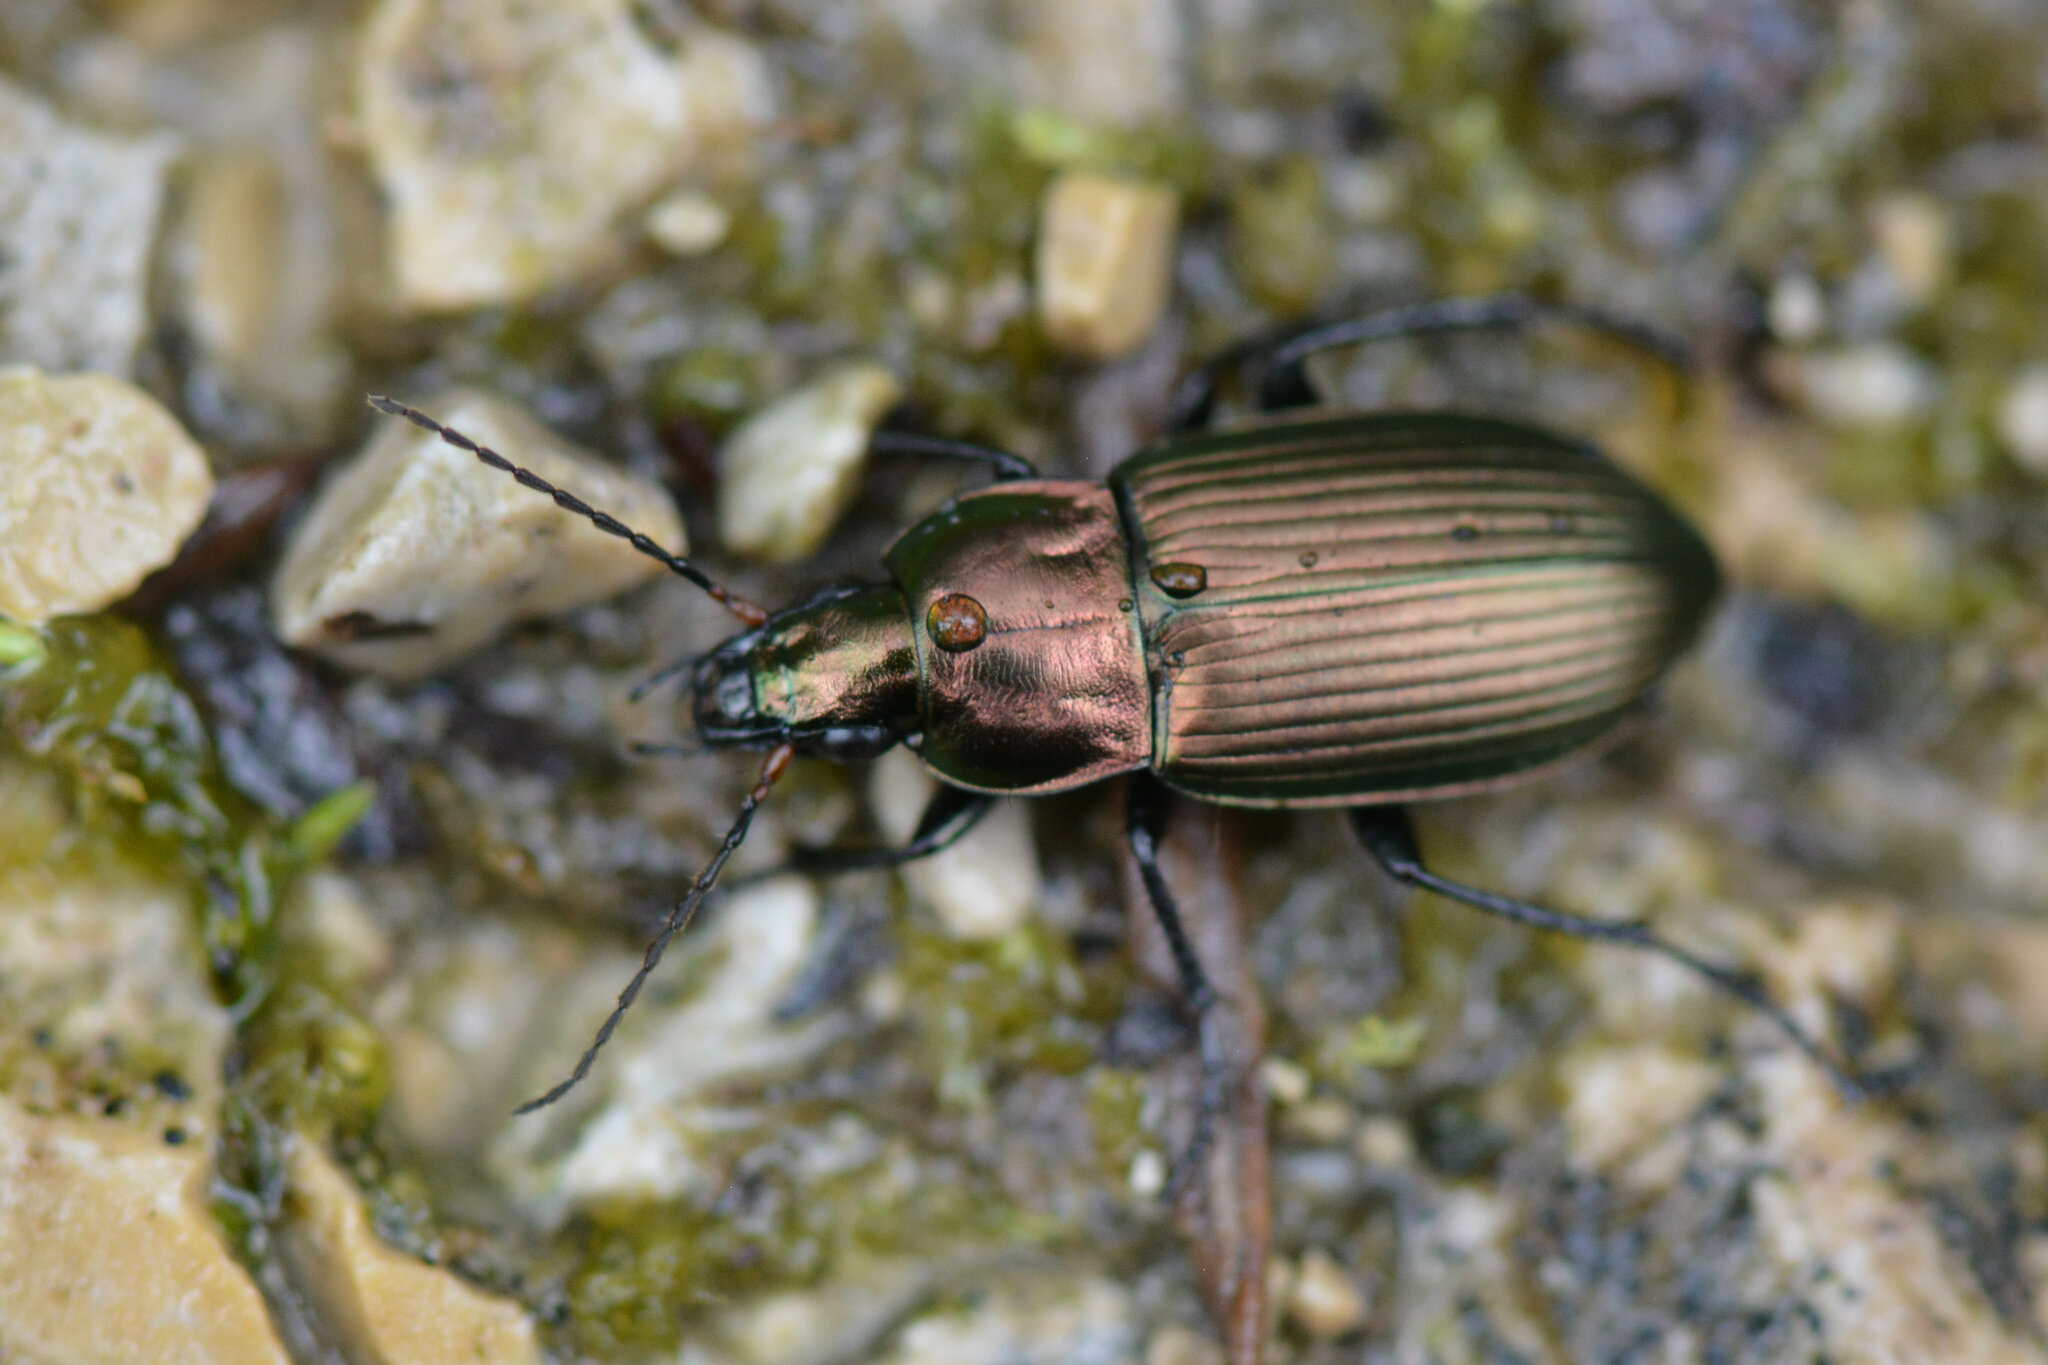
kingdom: Animalia
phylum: Arthropoda
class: Insecta
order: Coleoptera
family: Carabidae
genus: Poecilus
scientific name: Poecilus cupreus
